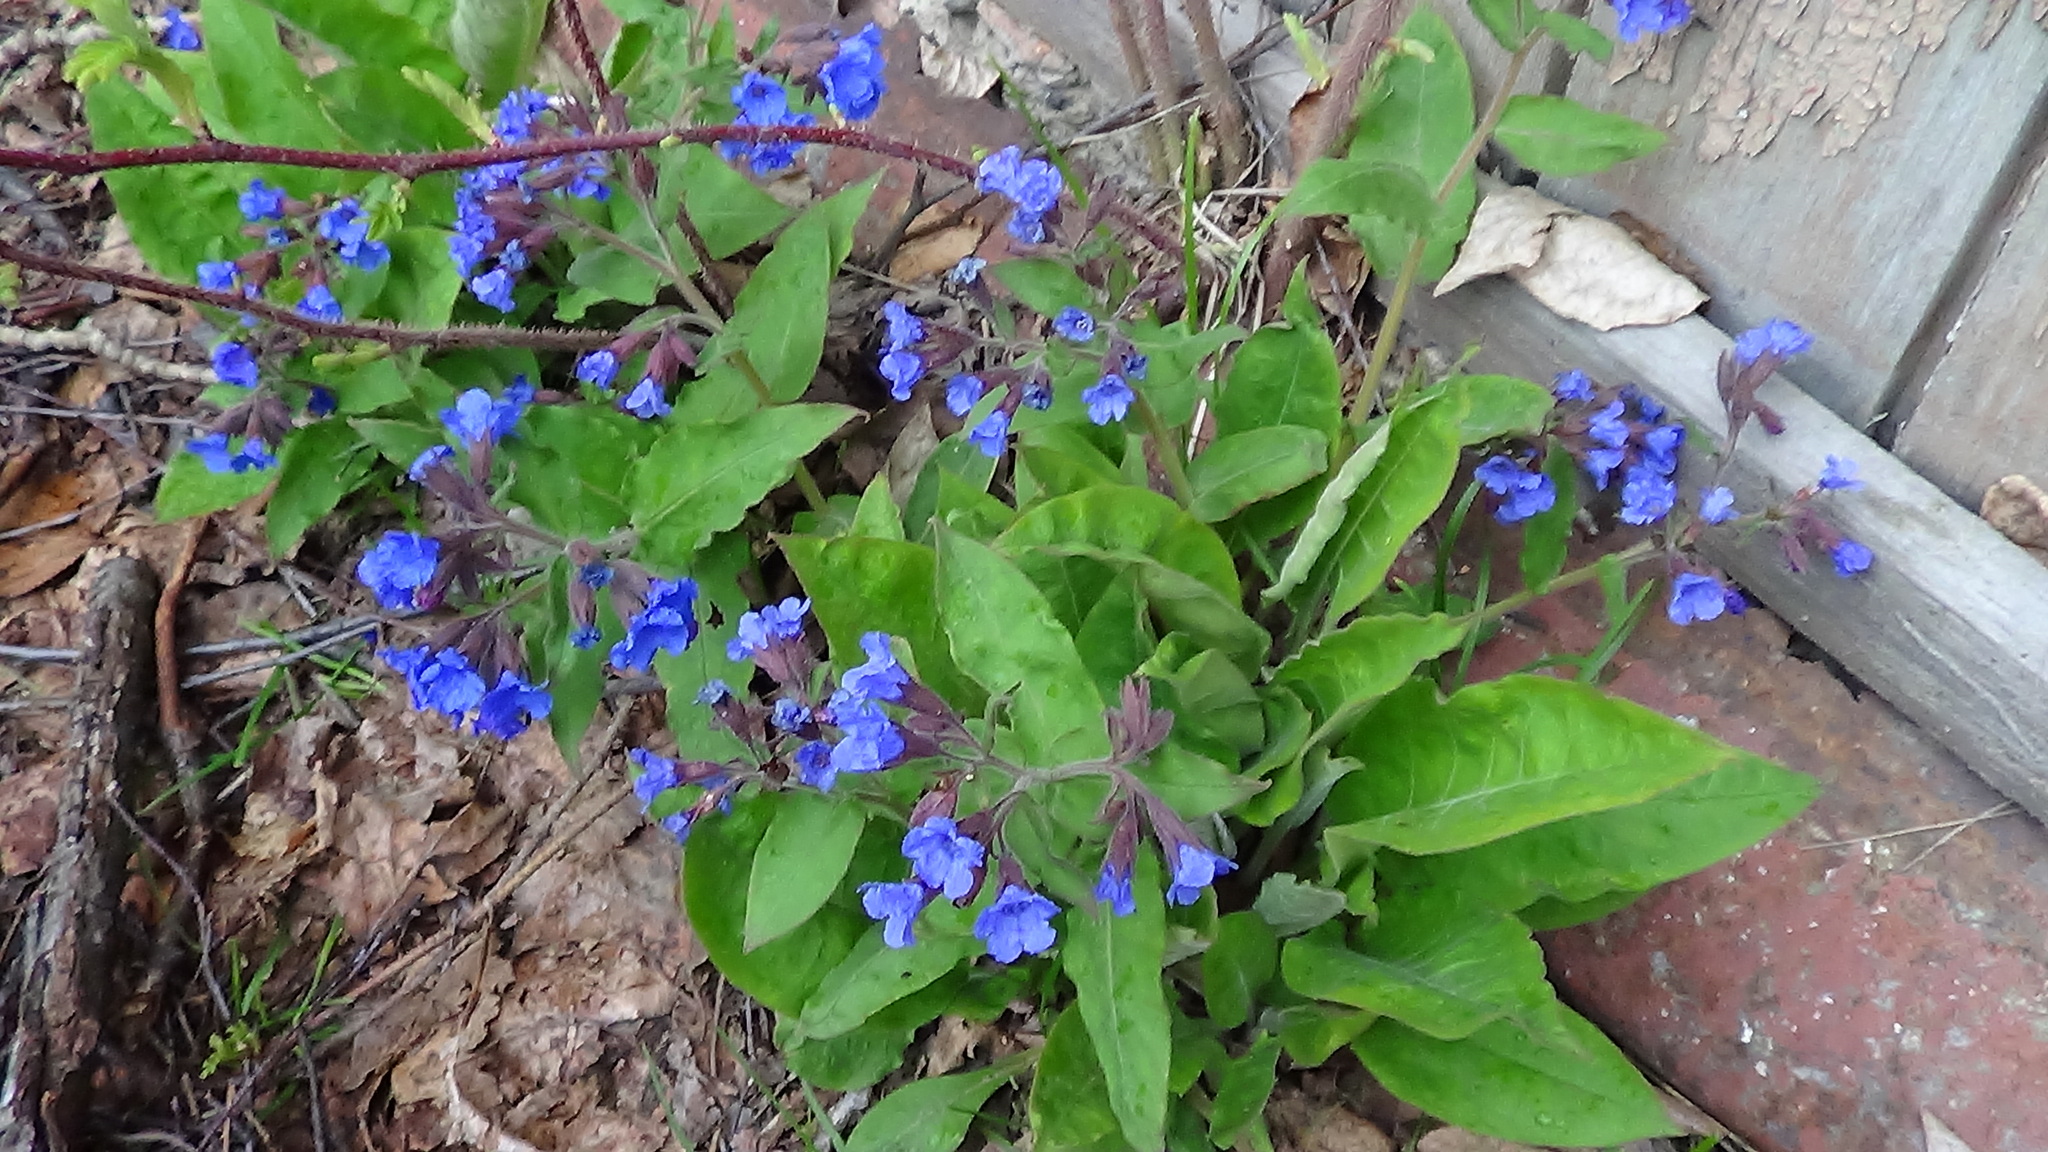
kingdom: Plantae
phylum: Tracheophyta
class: Magnoliopsida
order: Boraginales
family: Boraginaceae
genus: Pulmonaria
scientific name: Pulmonaria mollis
